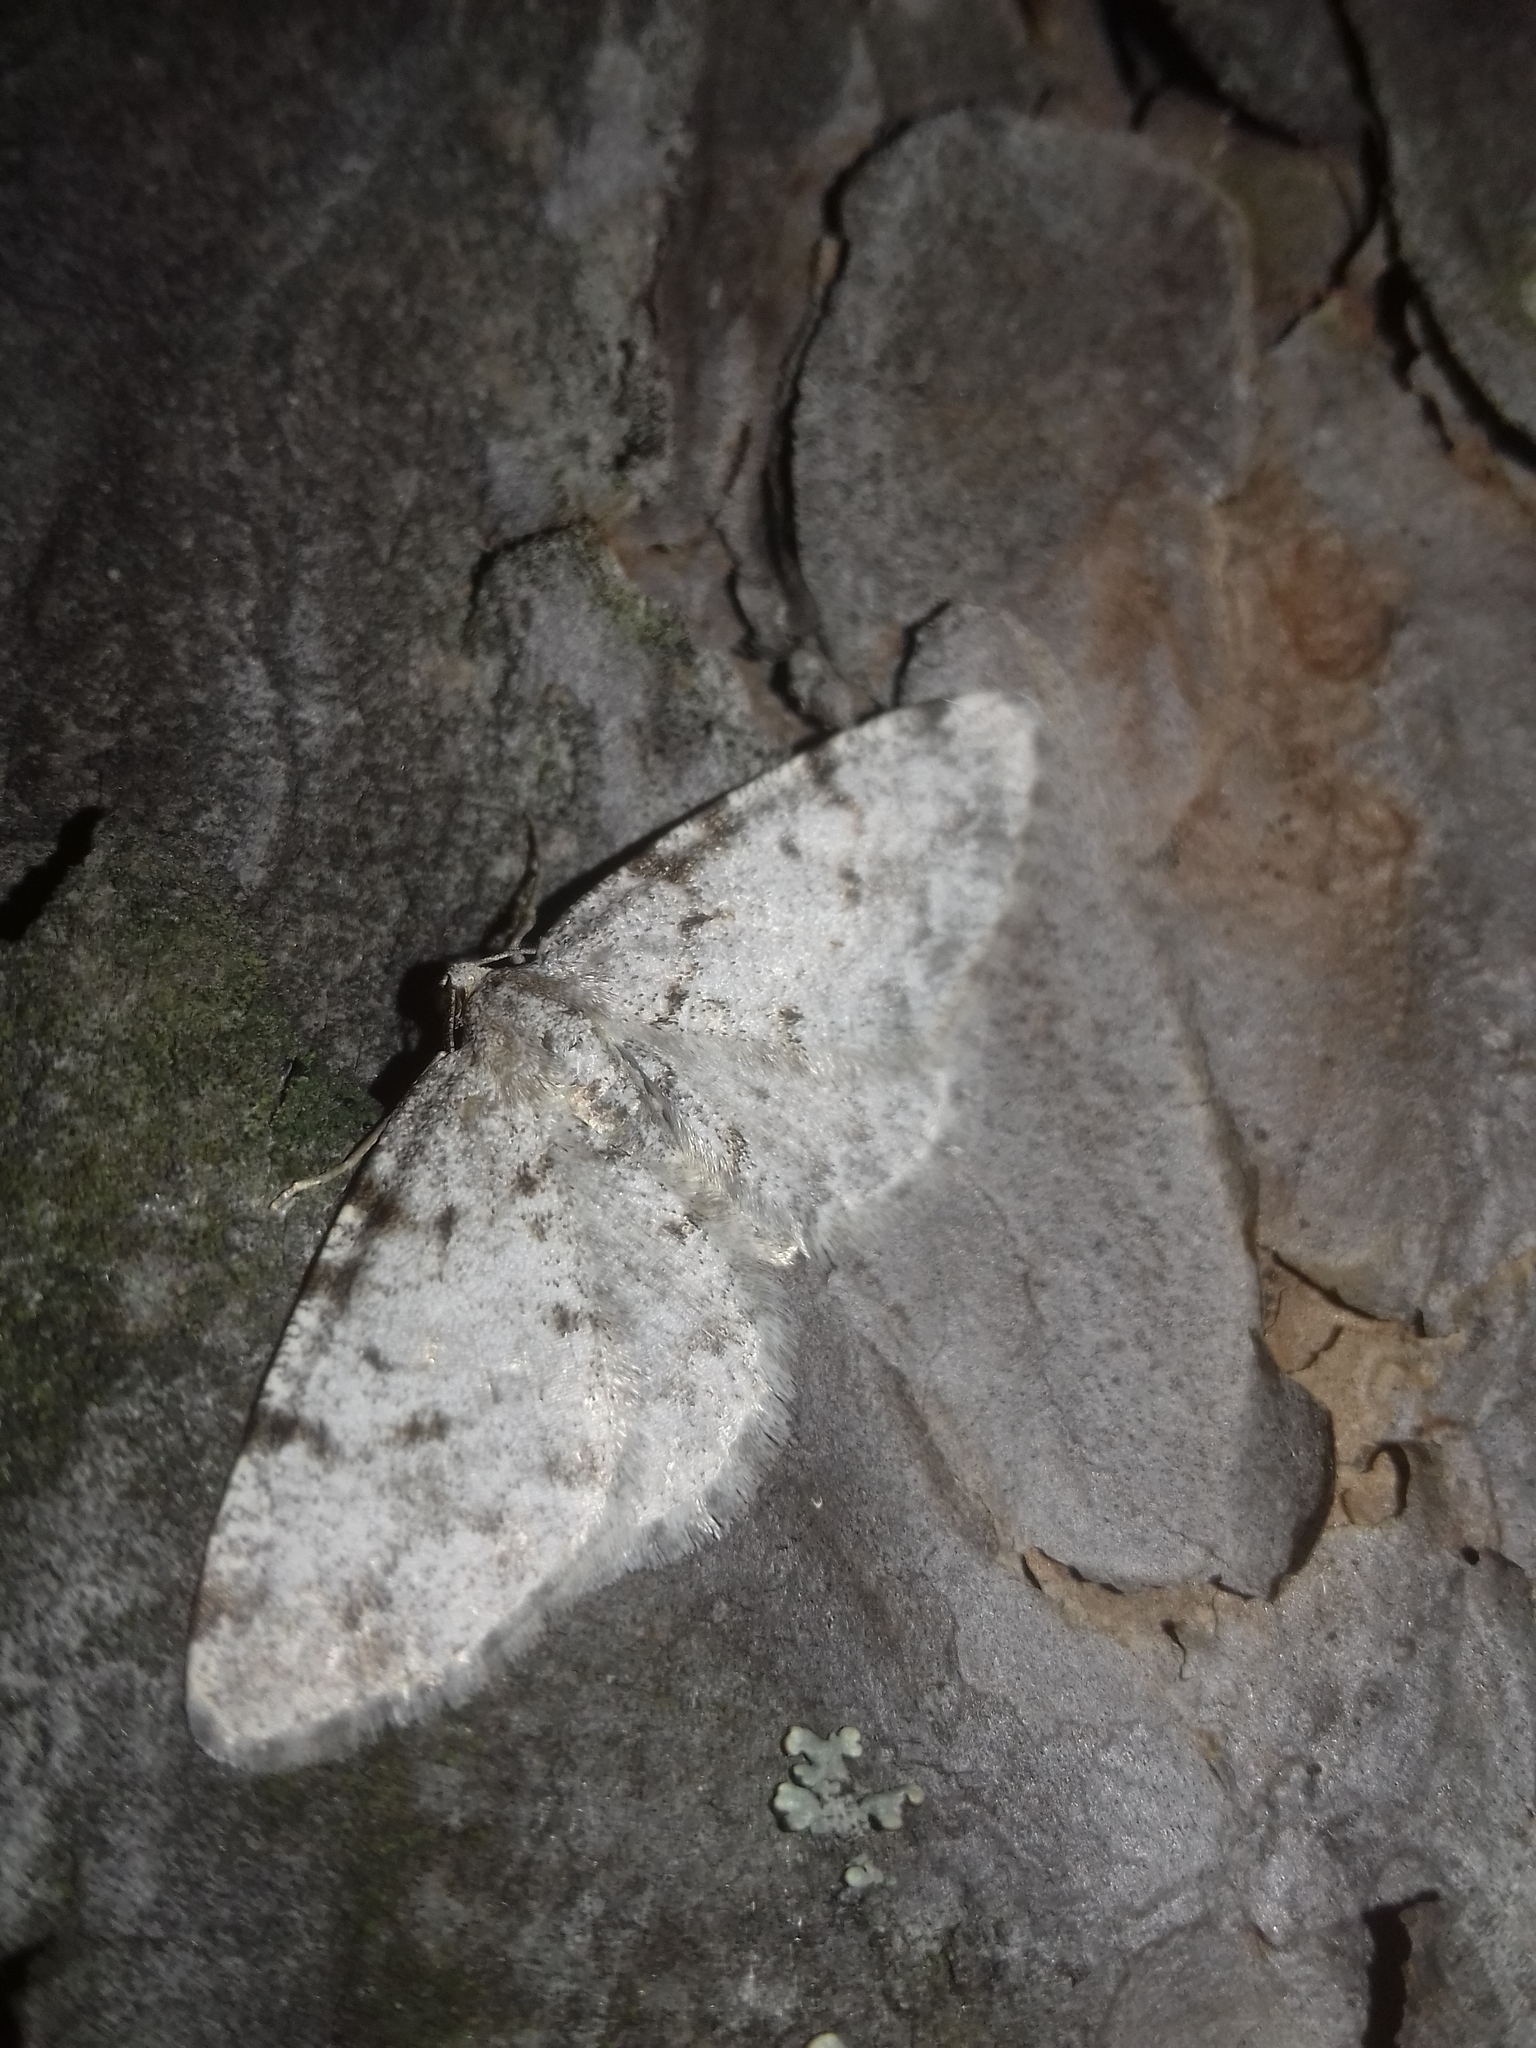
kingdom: Animalia
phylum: Arthropoda
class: Insecta
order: Lepidoptera
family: Geometridae
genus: Aethalura
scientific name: Aethalura punctulata
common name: Grey birch
